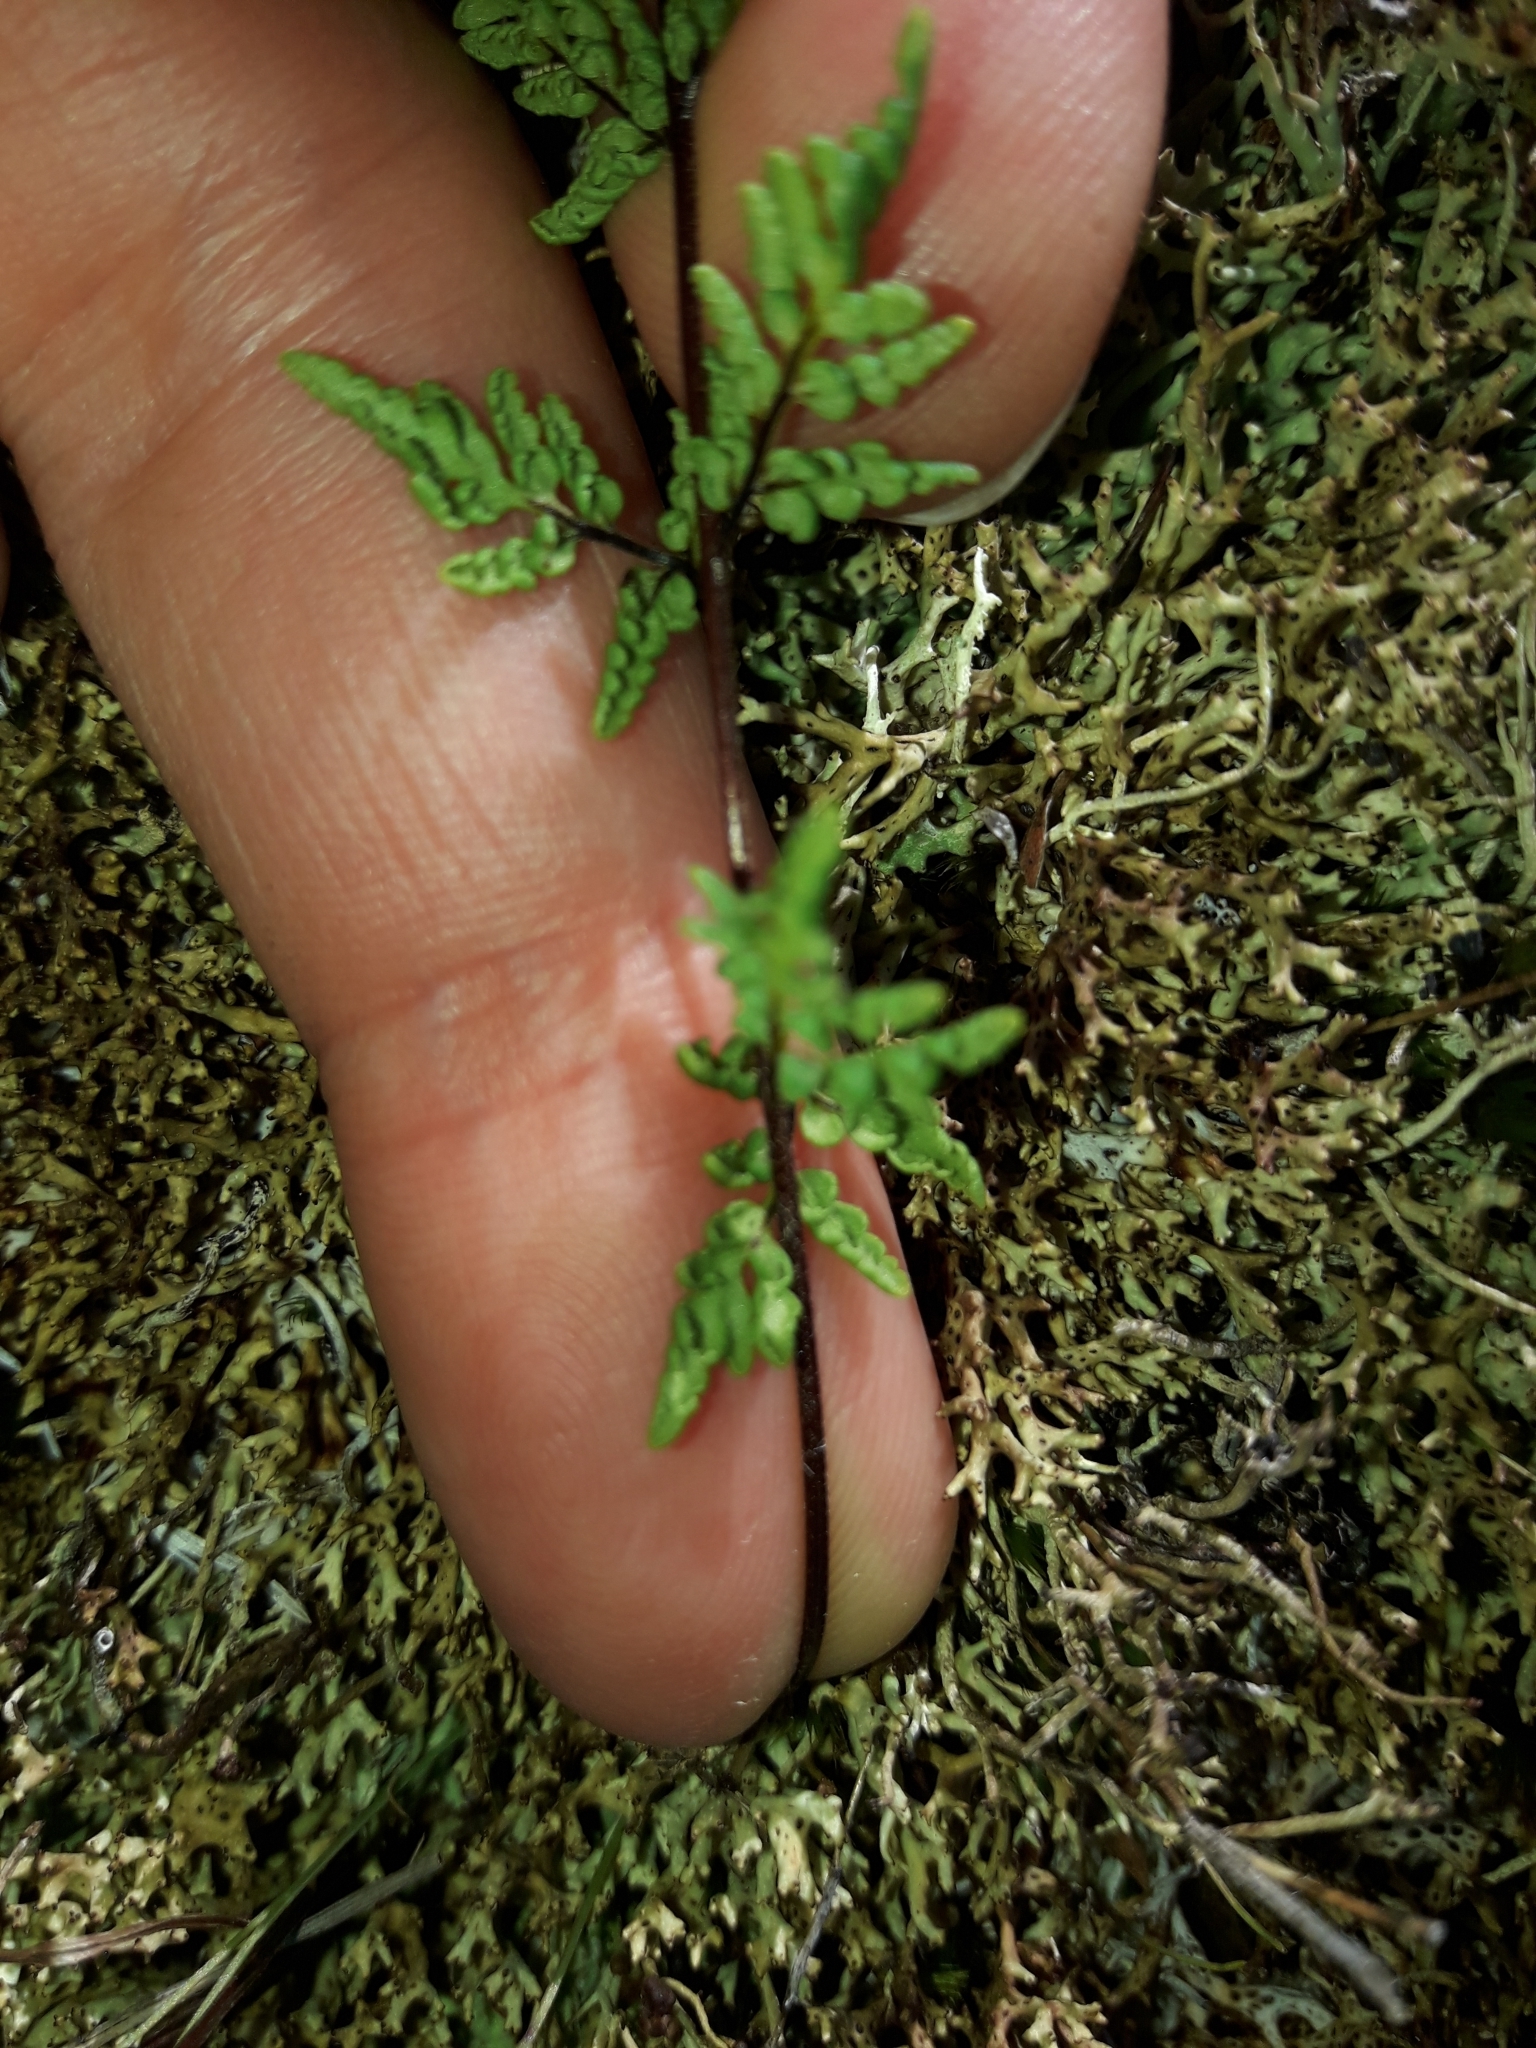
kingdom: Plantae
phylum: Tracheophyta
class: Polypodiopsida
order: Polypodiales
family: Pteridaceae
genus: Cheilanthes
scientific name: Cheilanthes sieberi
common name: Mulga fern
